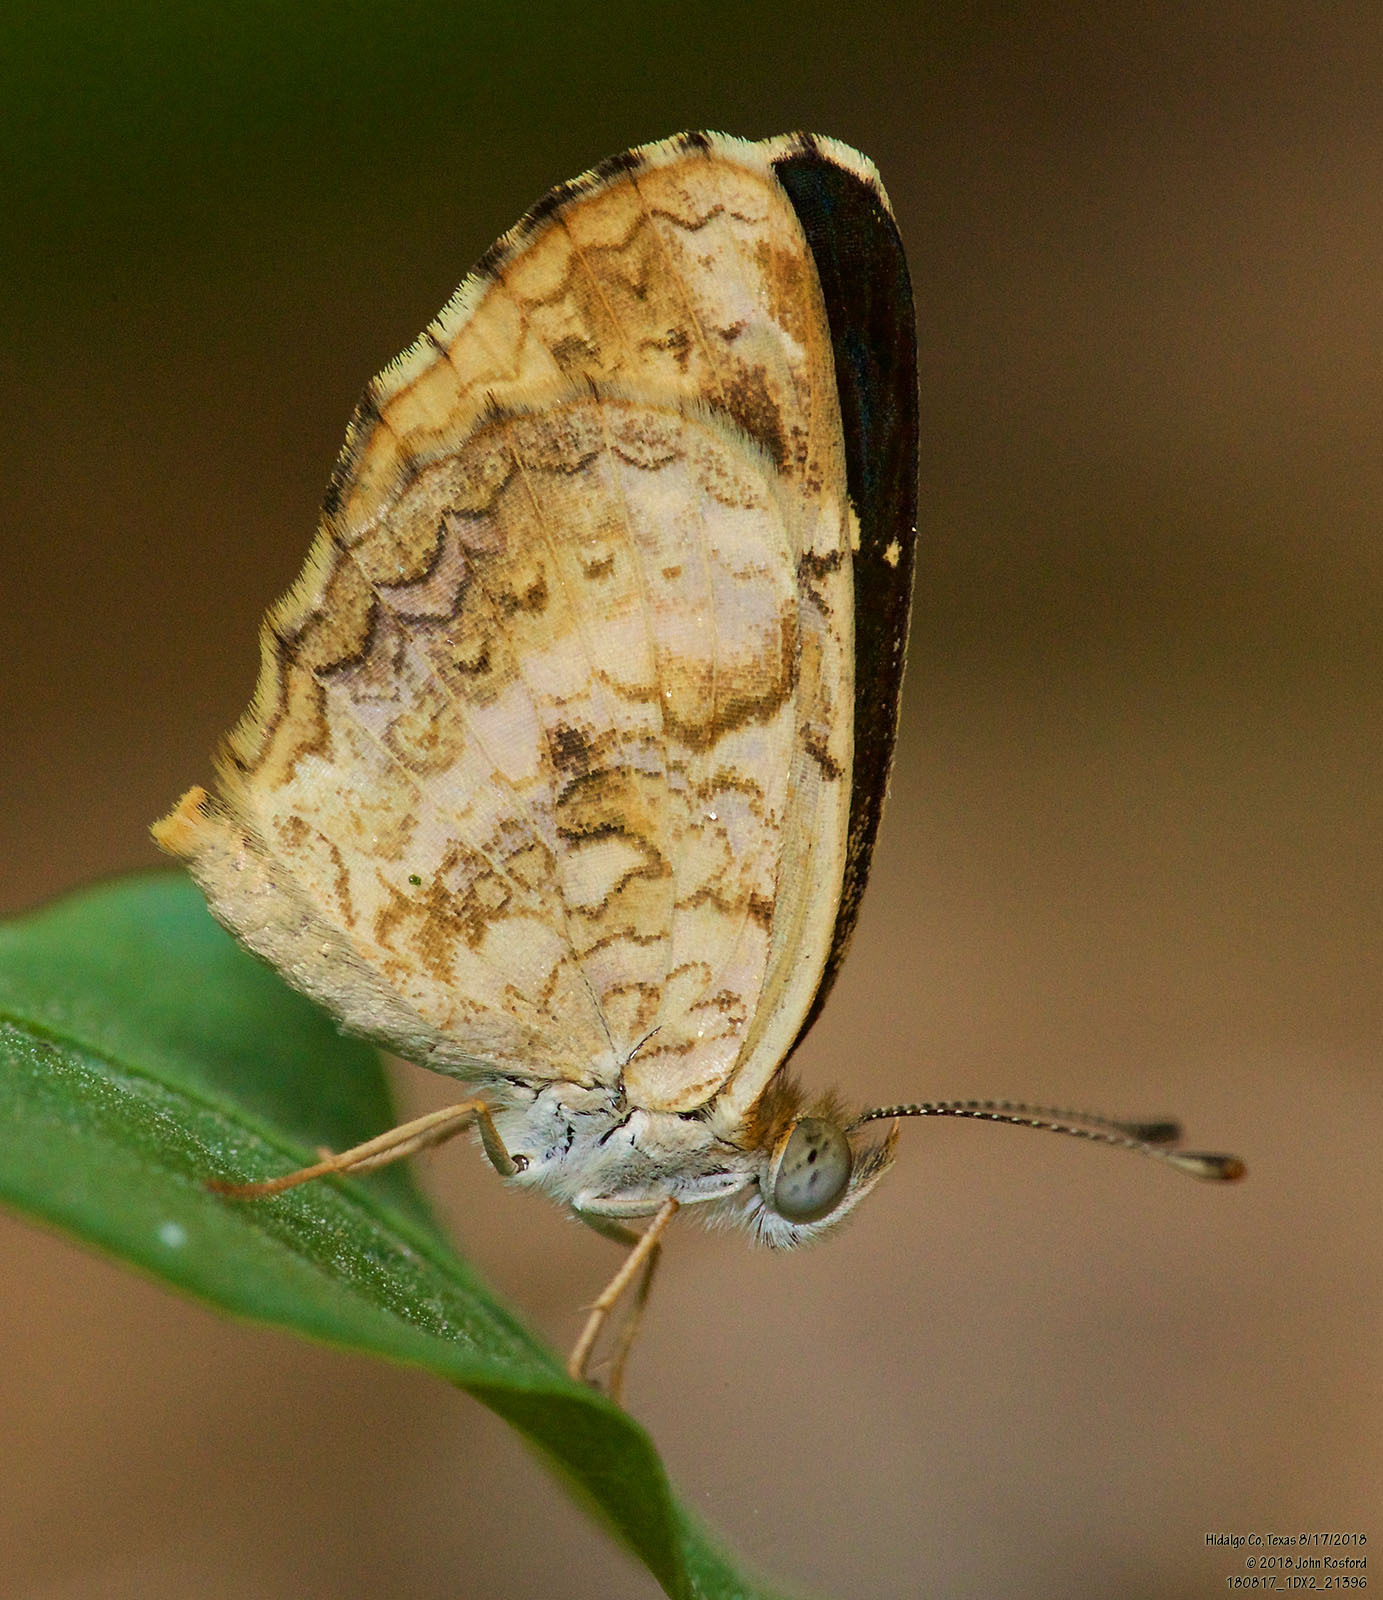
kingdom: Animalia
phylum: Arthropoda
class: Insecta
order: Lepidoptera
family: Nymphalidae
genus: Anthanassa
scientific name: Anthanassa tulcis
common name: Pale-banded crescent
